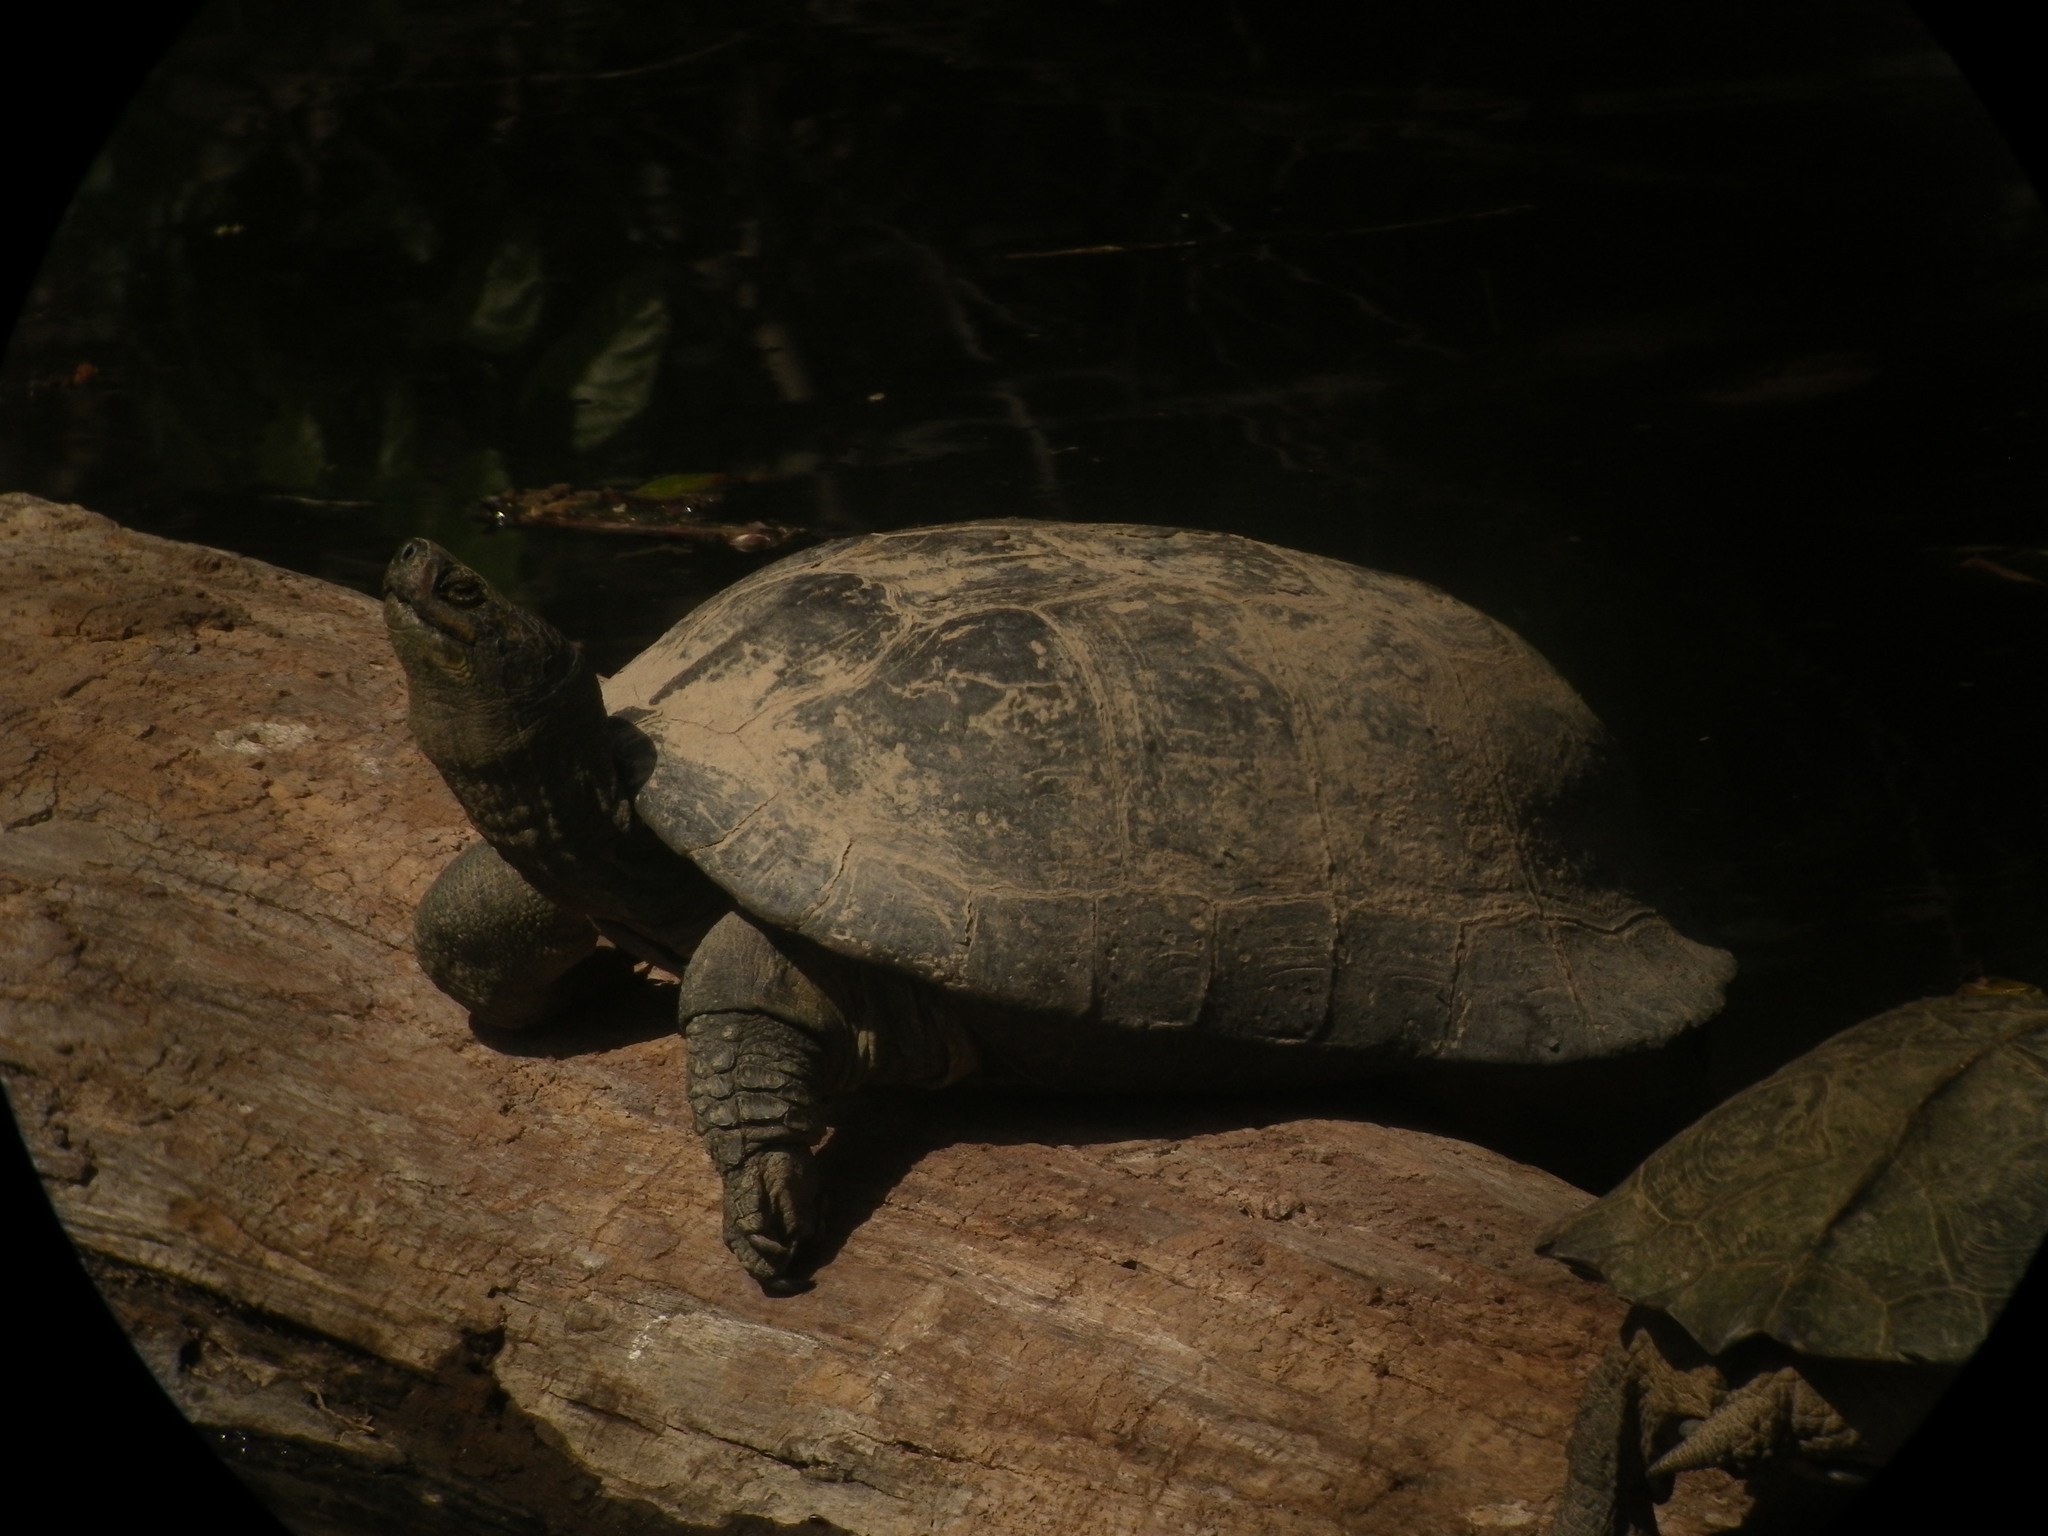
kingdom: Animalia
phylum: Chordata
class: Testudines
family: Geoemydidae
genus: Heosemys
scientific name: Heosemys grandis
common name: Giant asian pond turtle
